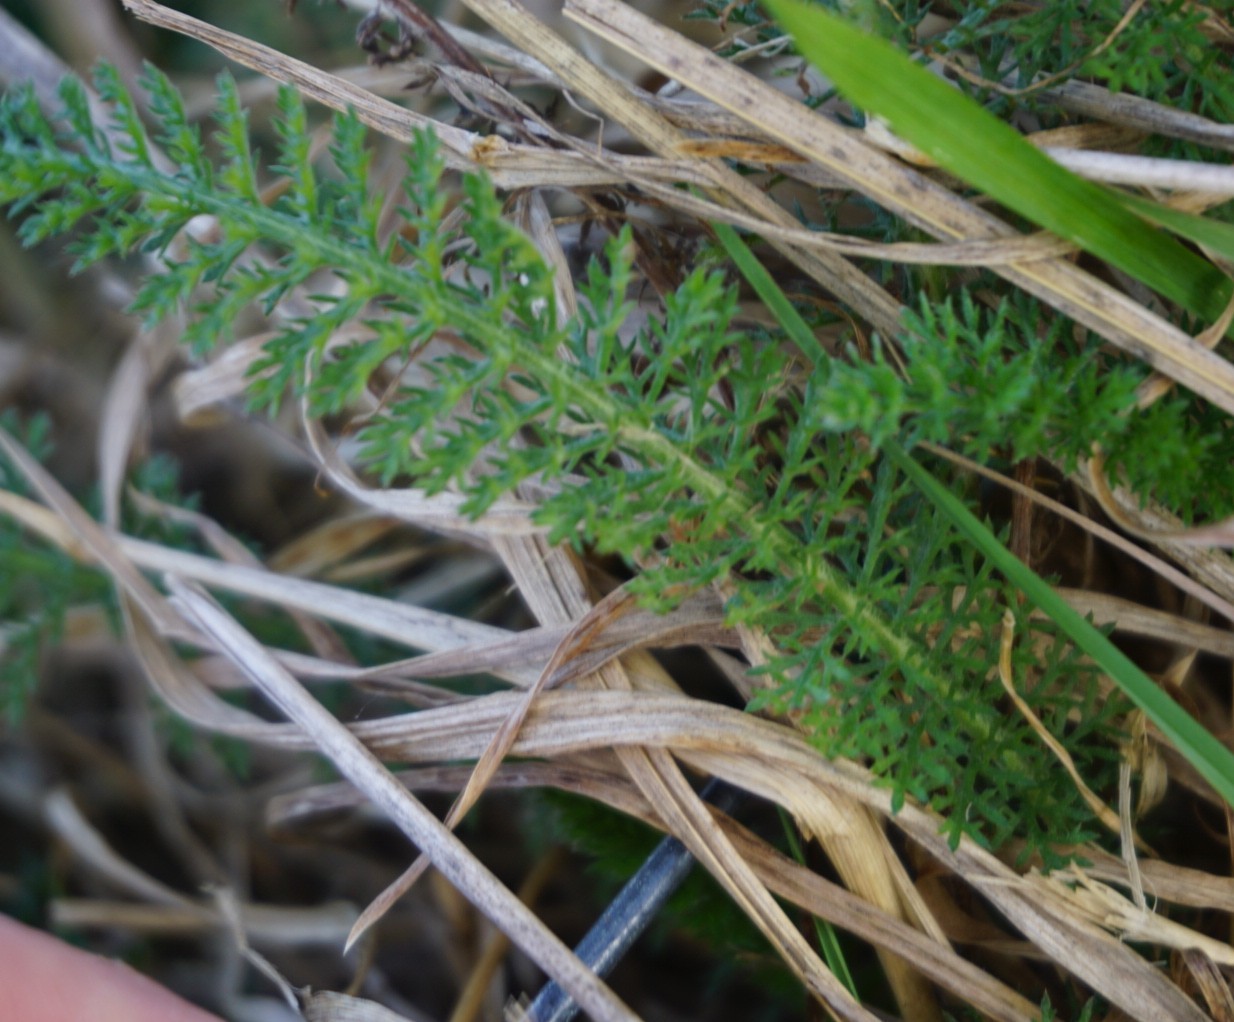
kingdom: Plantae
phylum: Tracheophyta
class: Magnoliopsida
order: Asterales
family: Asteraceae
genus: Achillea
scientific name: Achillea millefolium
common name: Yarrow
